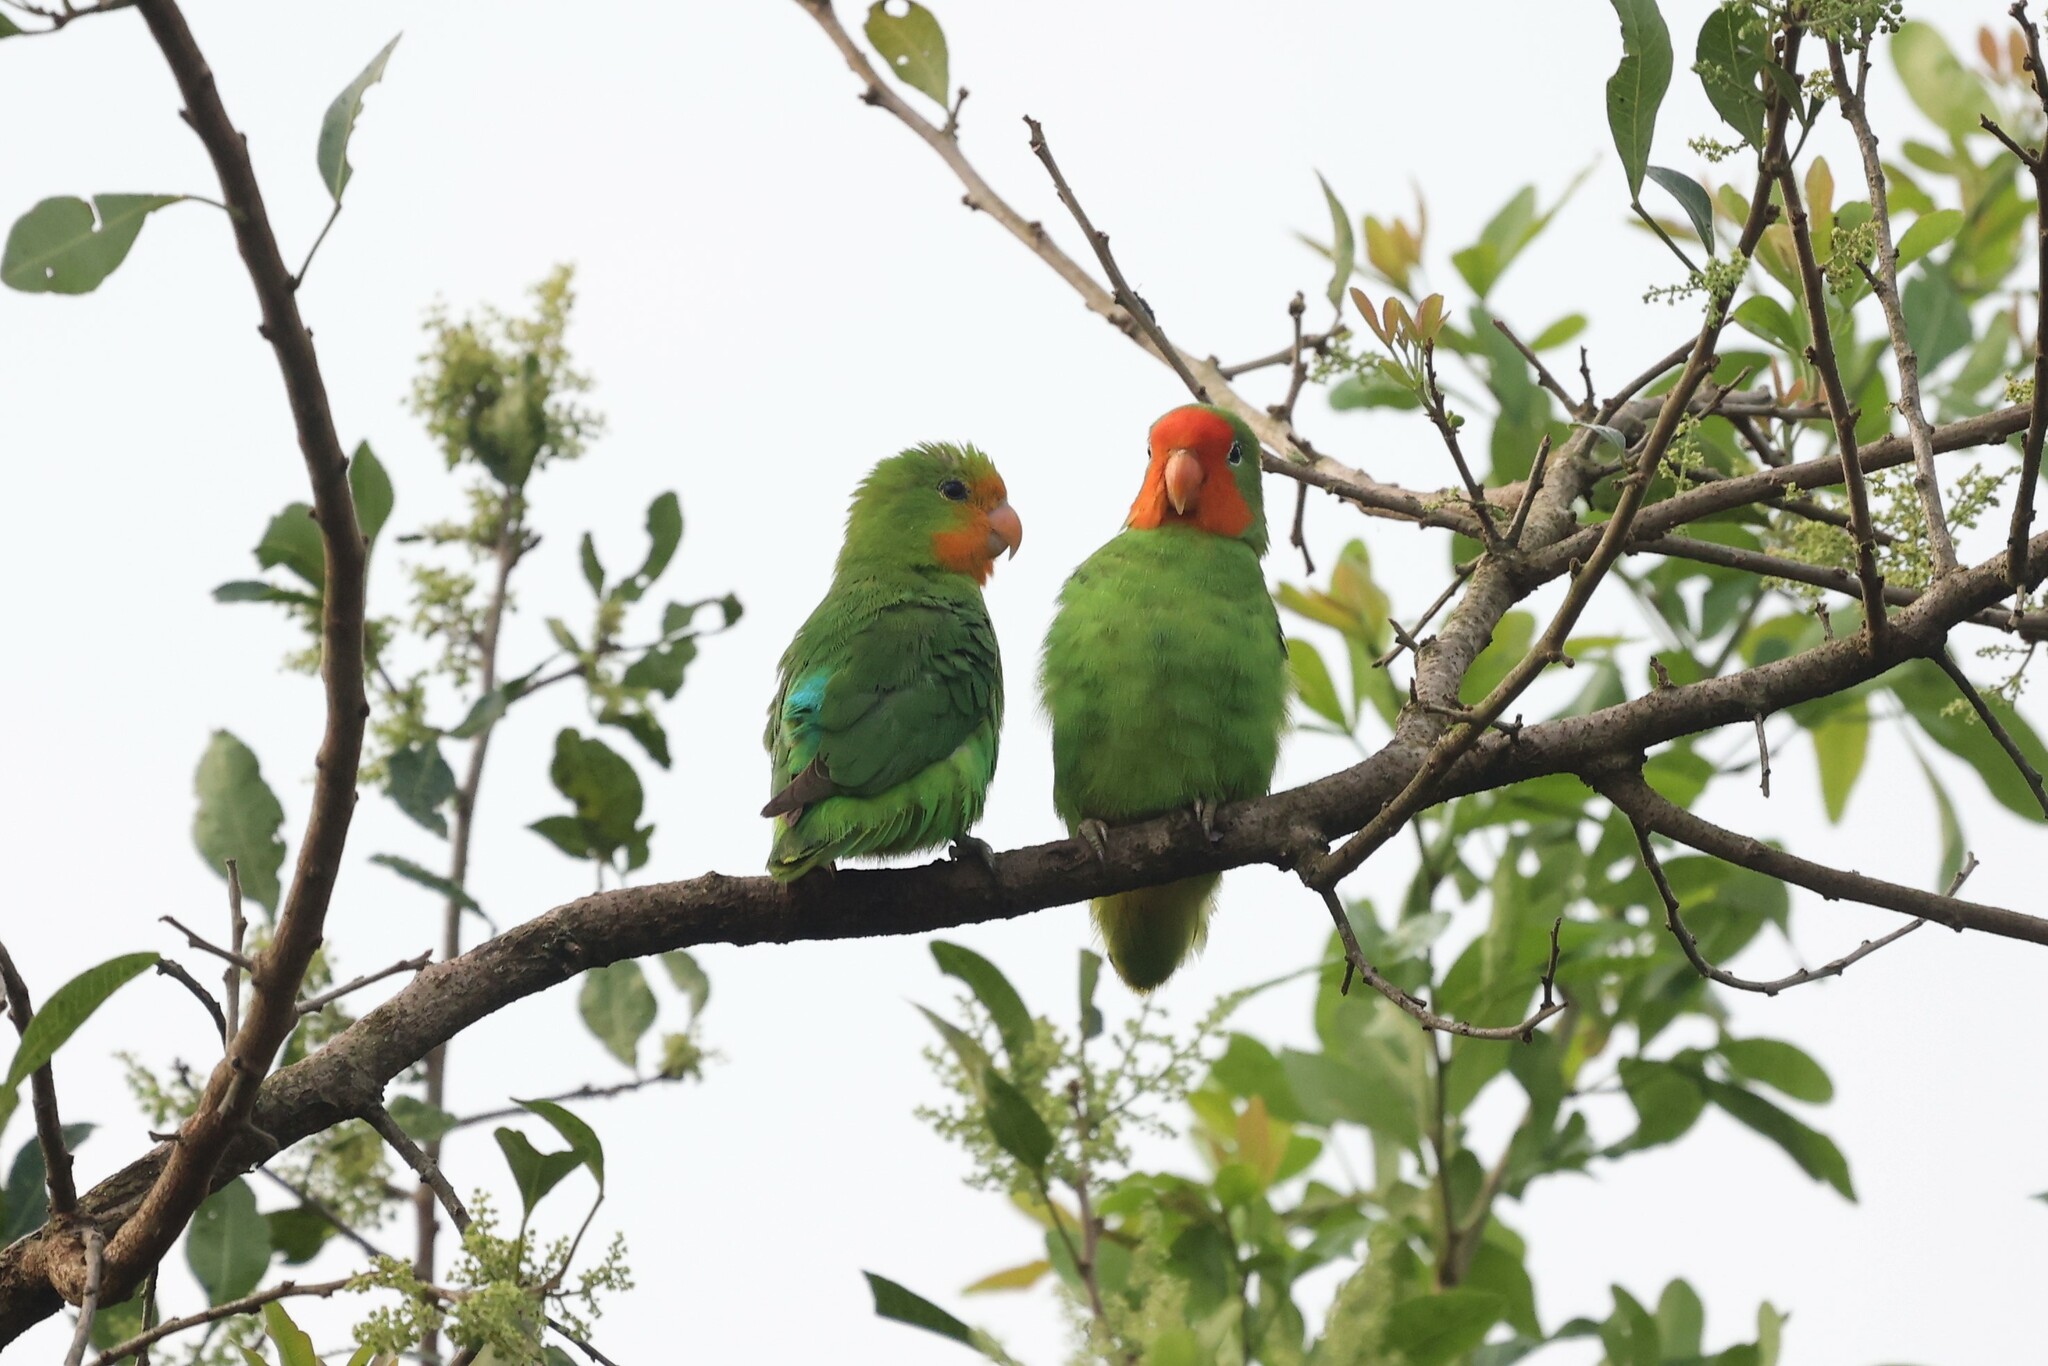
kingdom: Animalia
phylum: Chordata
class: Aves
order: Psittaciformes
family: Psittacidae
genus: Agapornis
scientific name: Agapornis pullarius
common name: Red-headed lovebird
